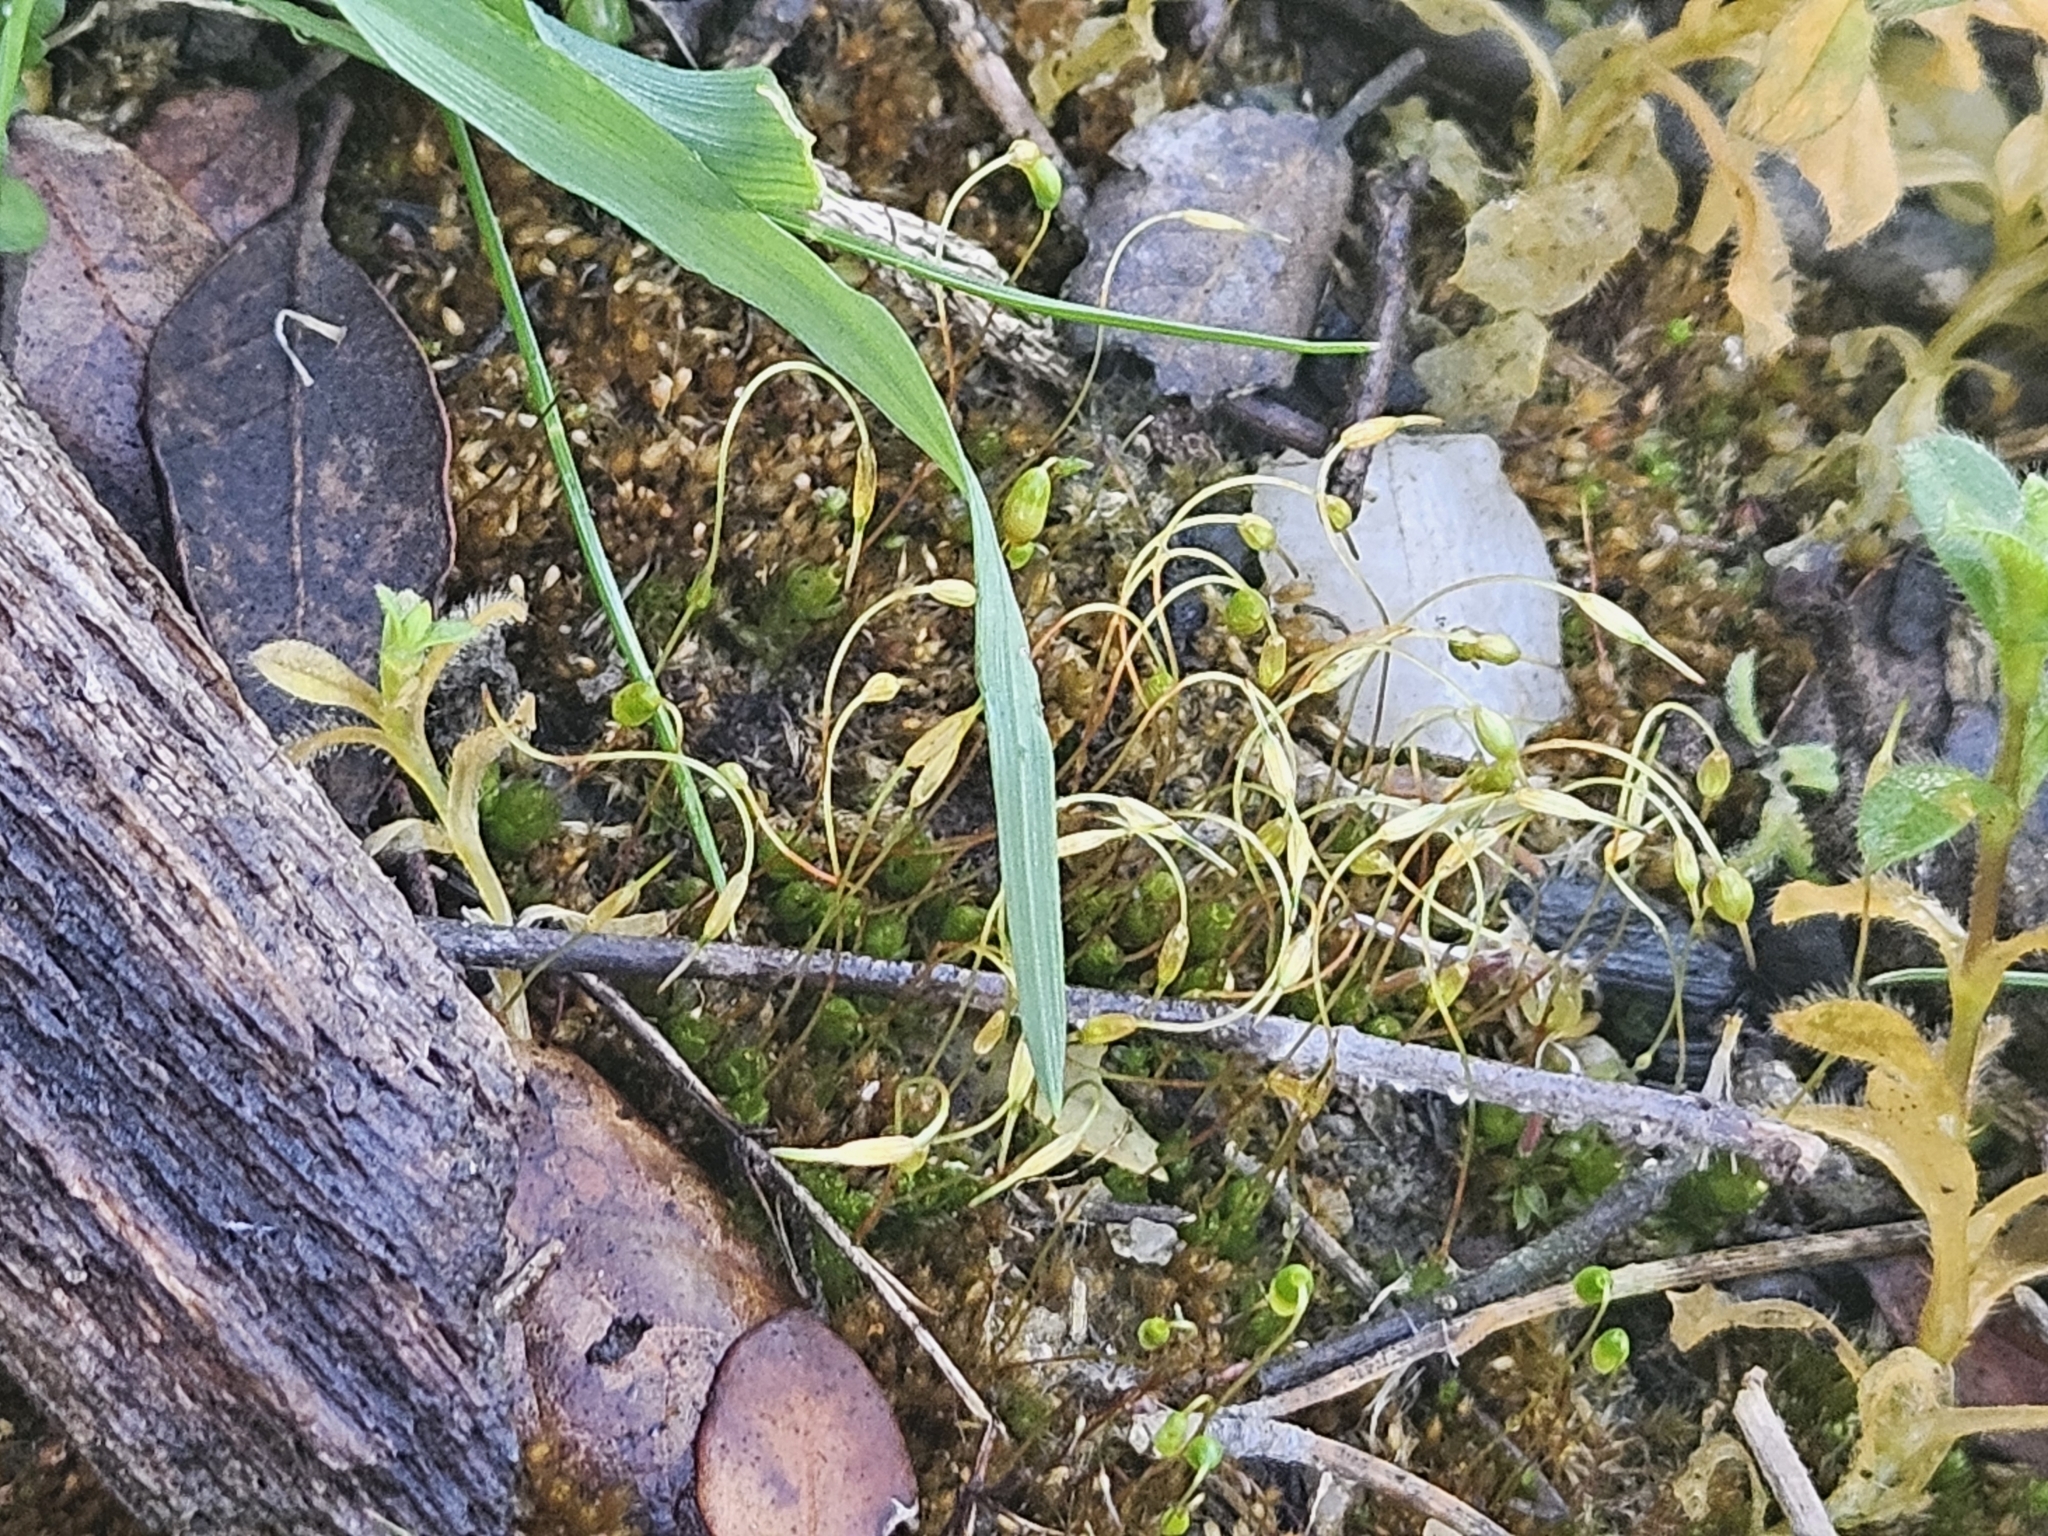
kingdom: Plantae
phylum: Bryophyta
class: Bryopsida
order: Funariales
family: Funariaceae
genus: Funaria
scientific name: Funaria hygrometrica
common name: Common cord moss
